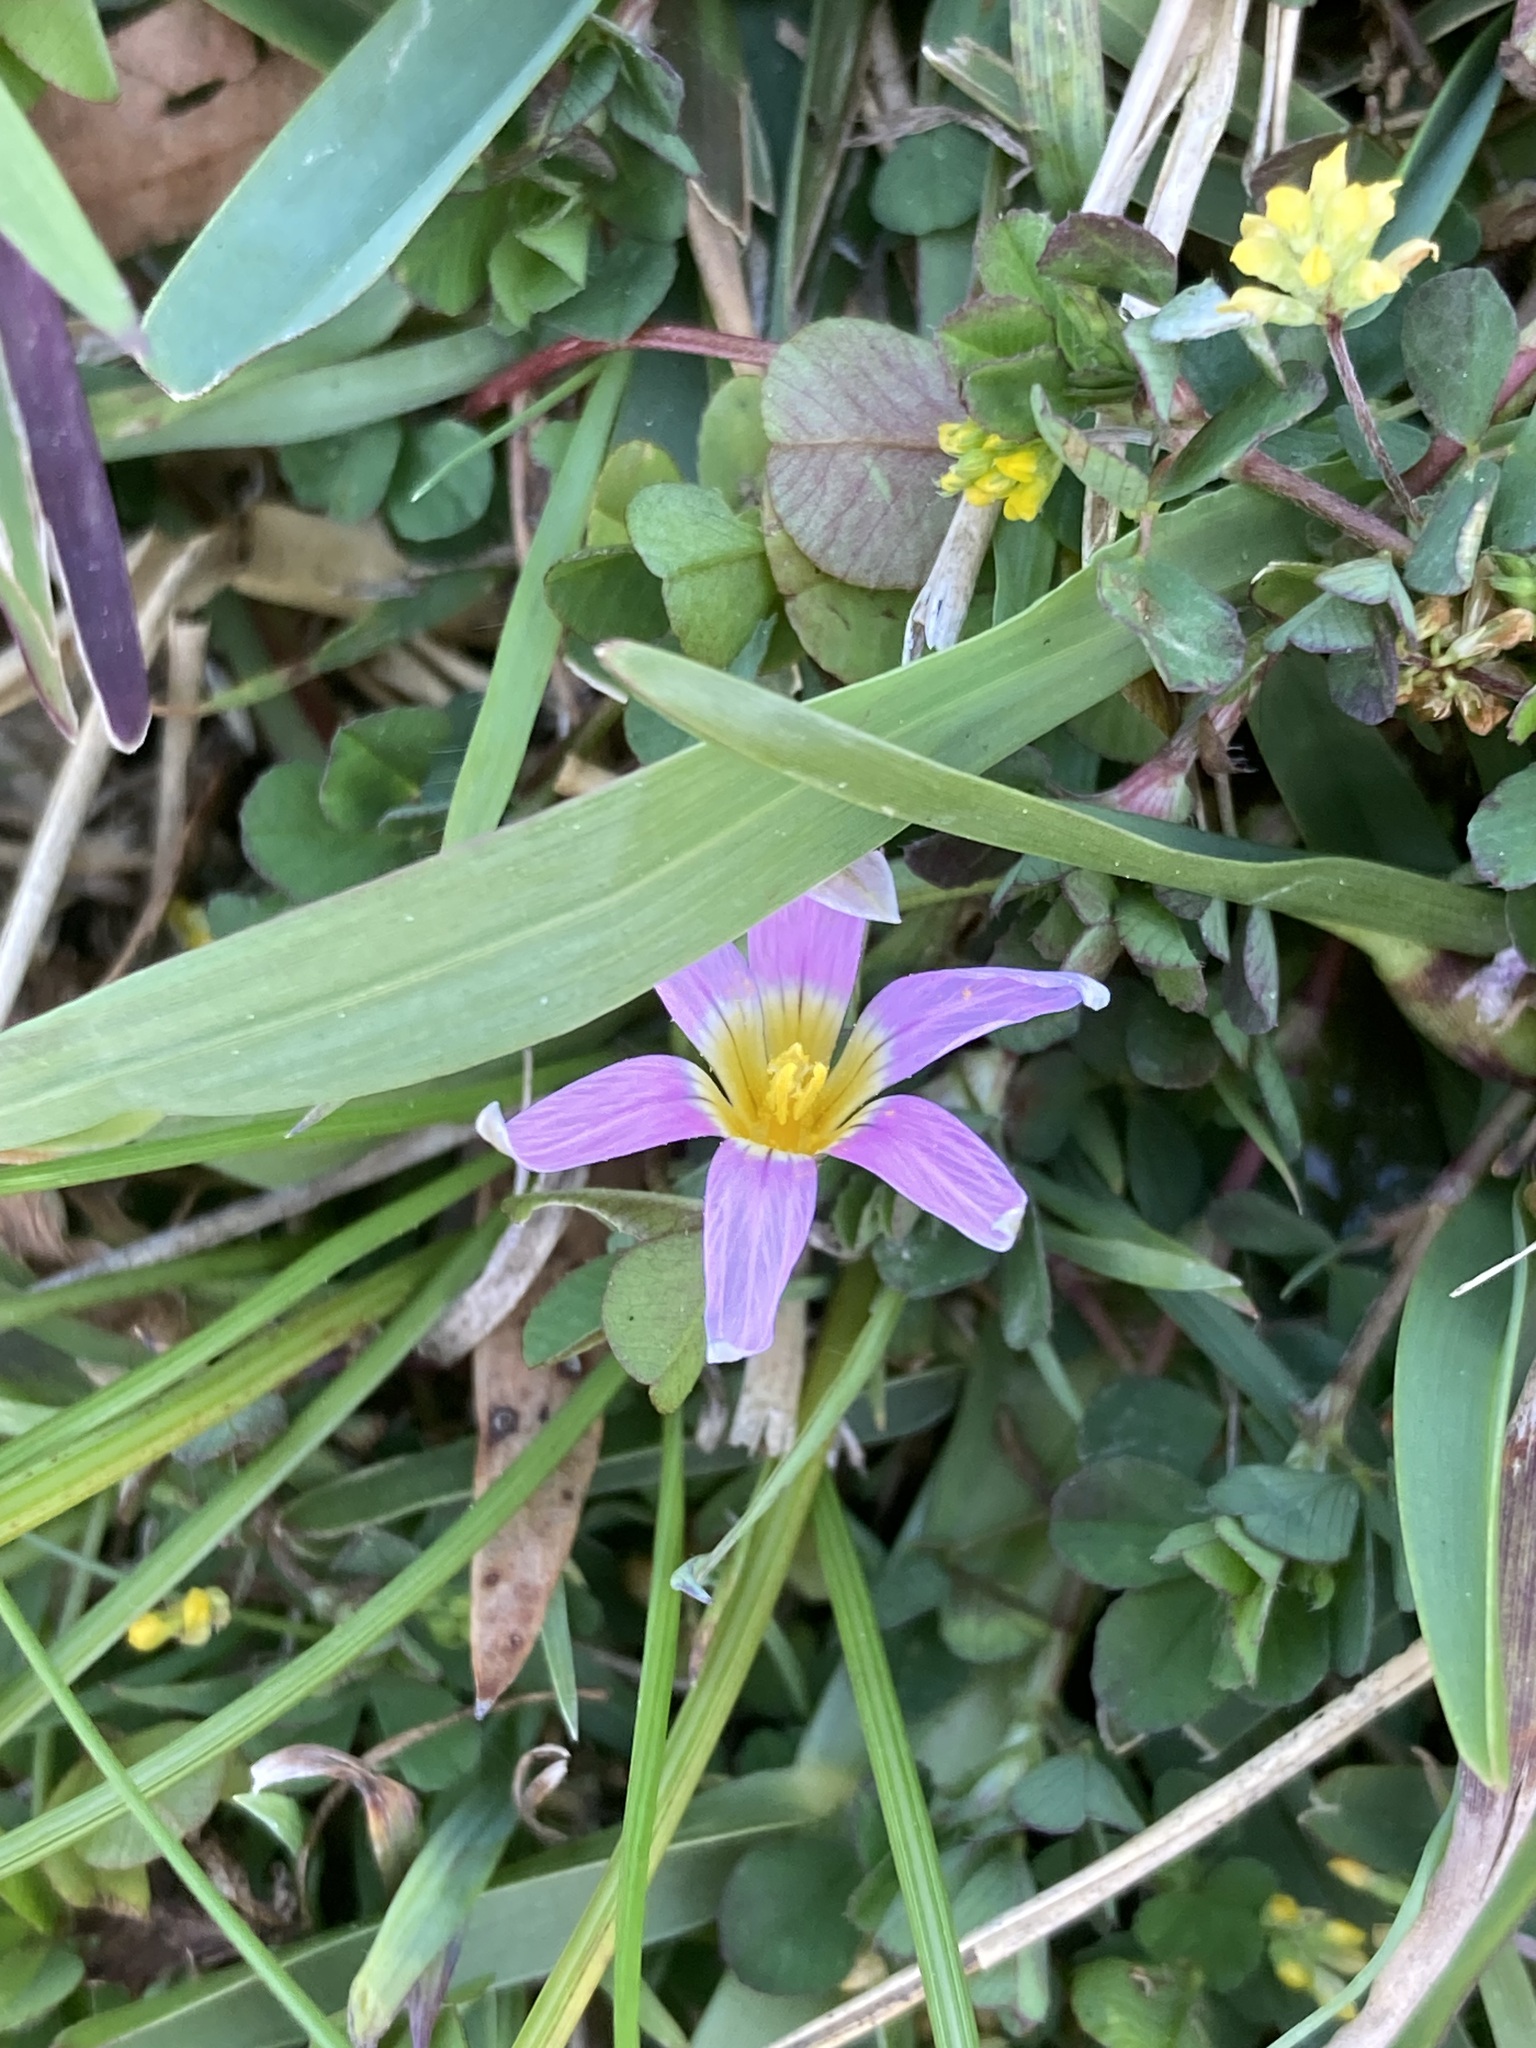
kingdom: Plantae
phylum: Tracheophyta
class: Liliopsida
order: Asparagales
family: Iridaceae
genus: Romulea
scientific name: Romulea rosea
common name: Oniongrass
